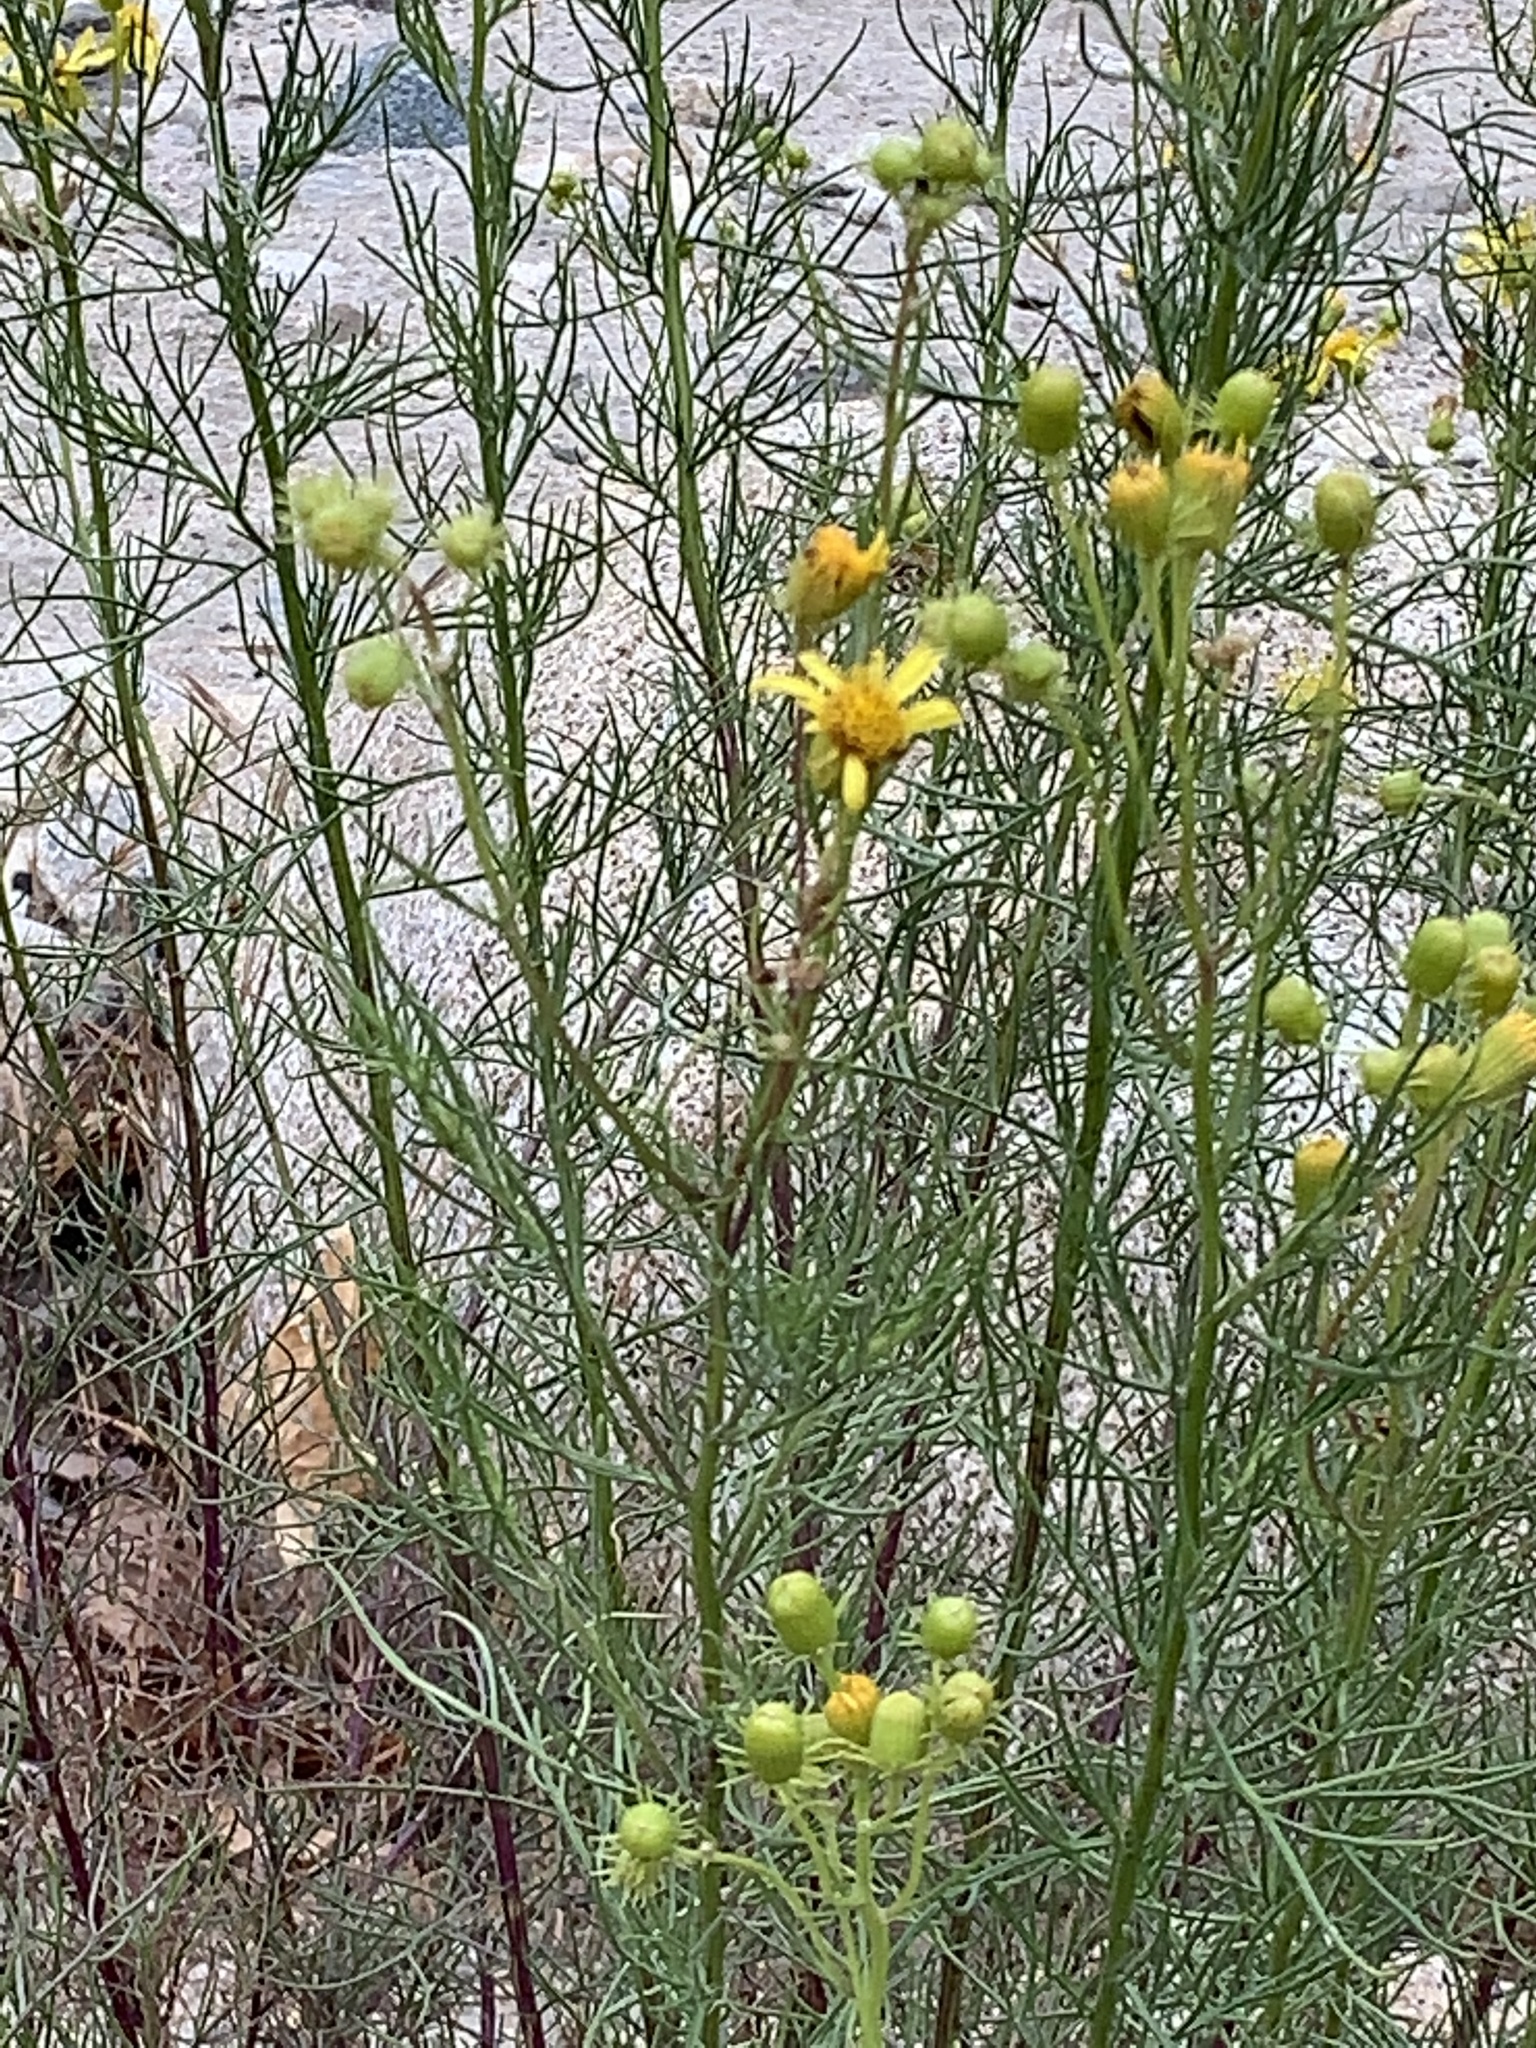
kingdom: Plantae
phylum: Tracheophyta
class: Magnoliopsida
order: Asterales
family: Asteraceae
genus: Senecio
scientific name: Senecio flaccidus
